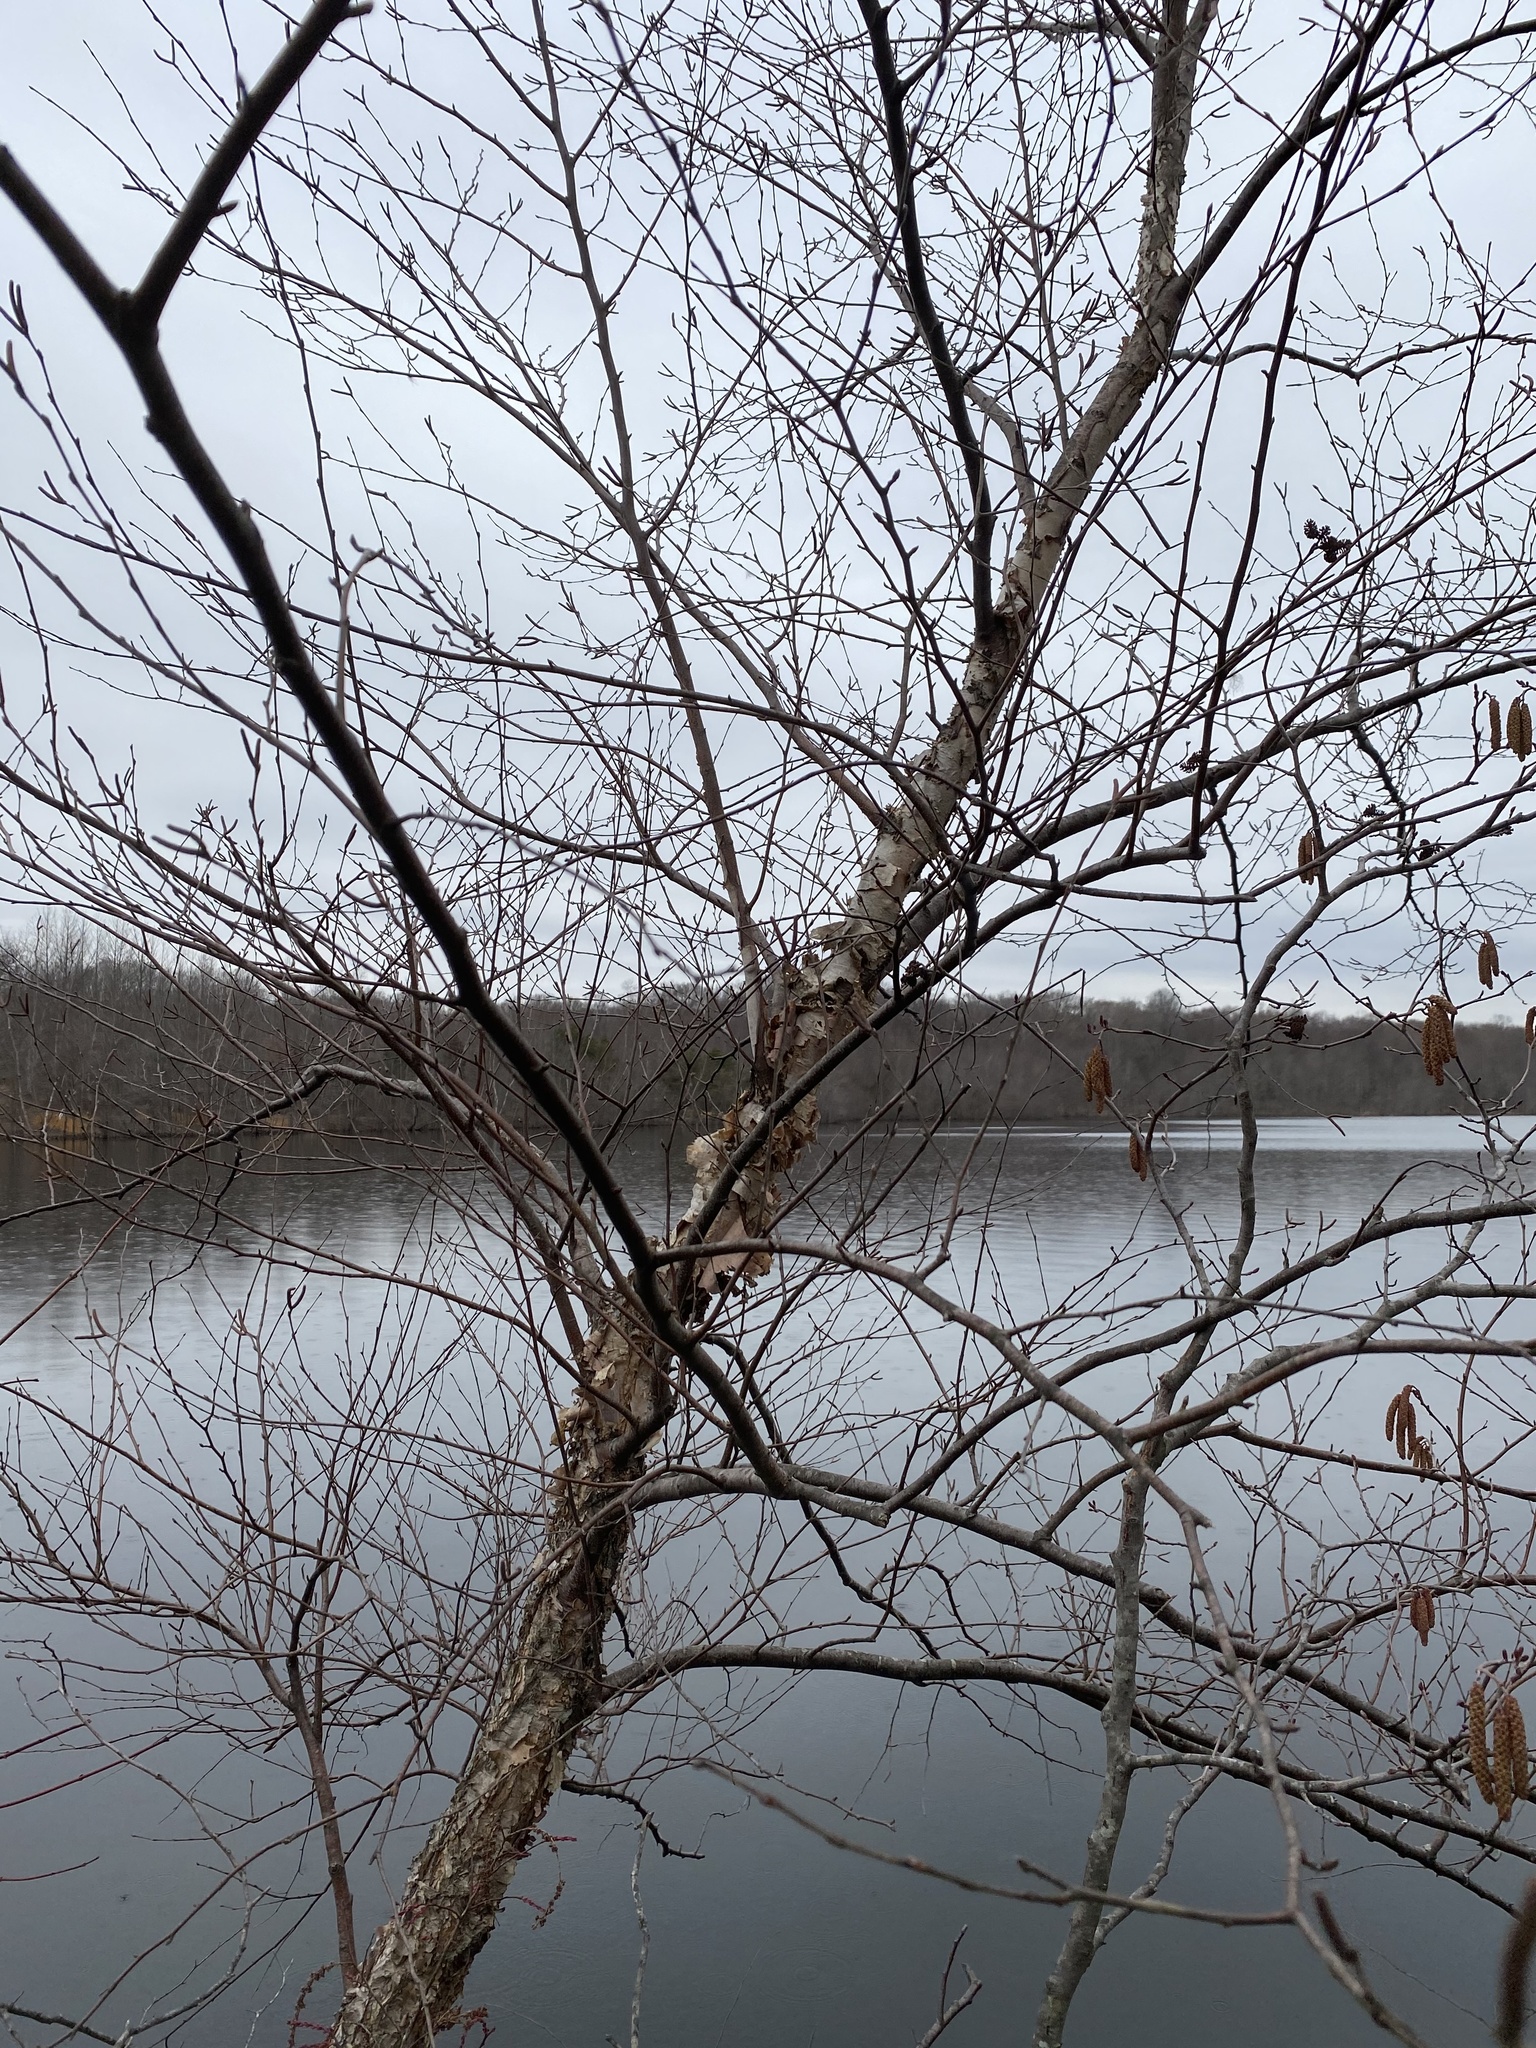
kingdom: Plantae
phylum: Tracheophyta
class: Magnoliopsida
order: Fagales
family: Betulaceae
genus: Betula
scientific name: Betula nigra
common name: Black birch
